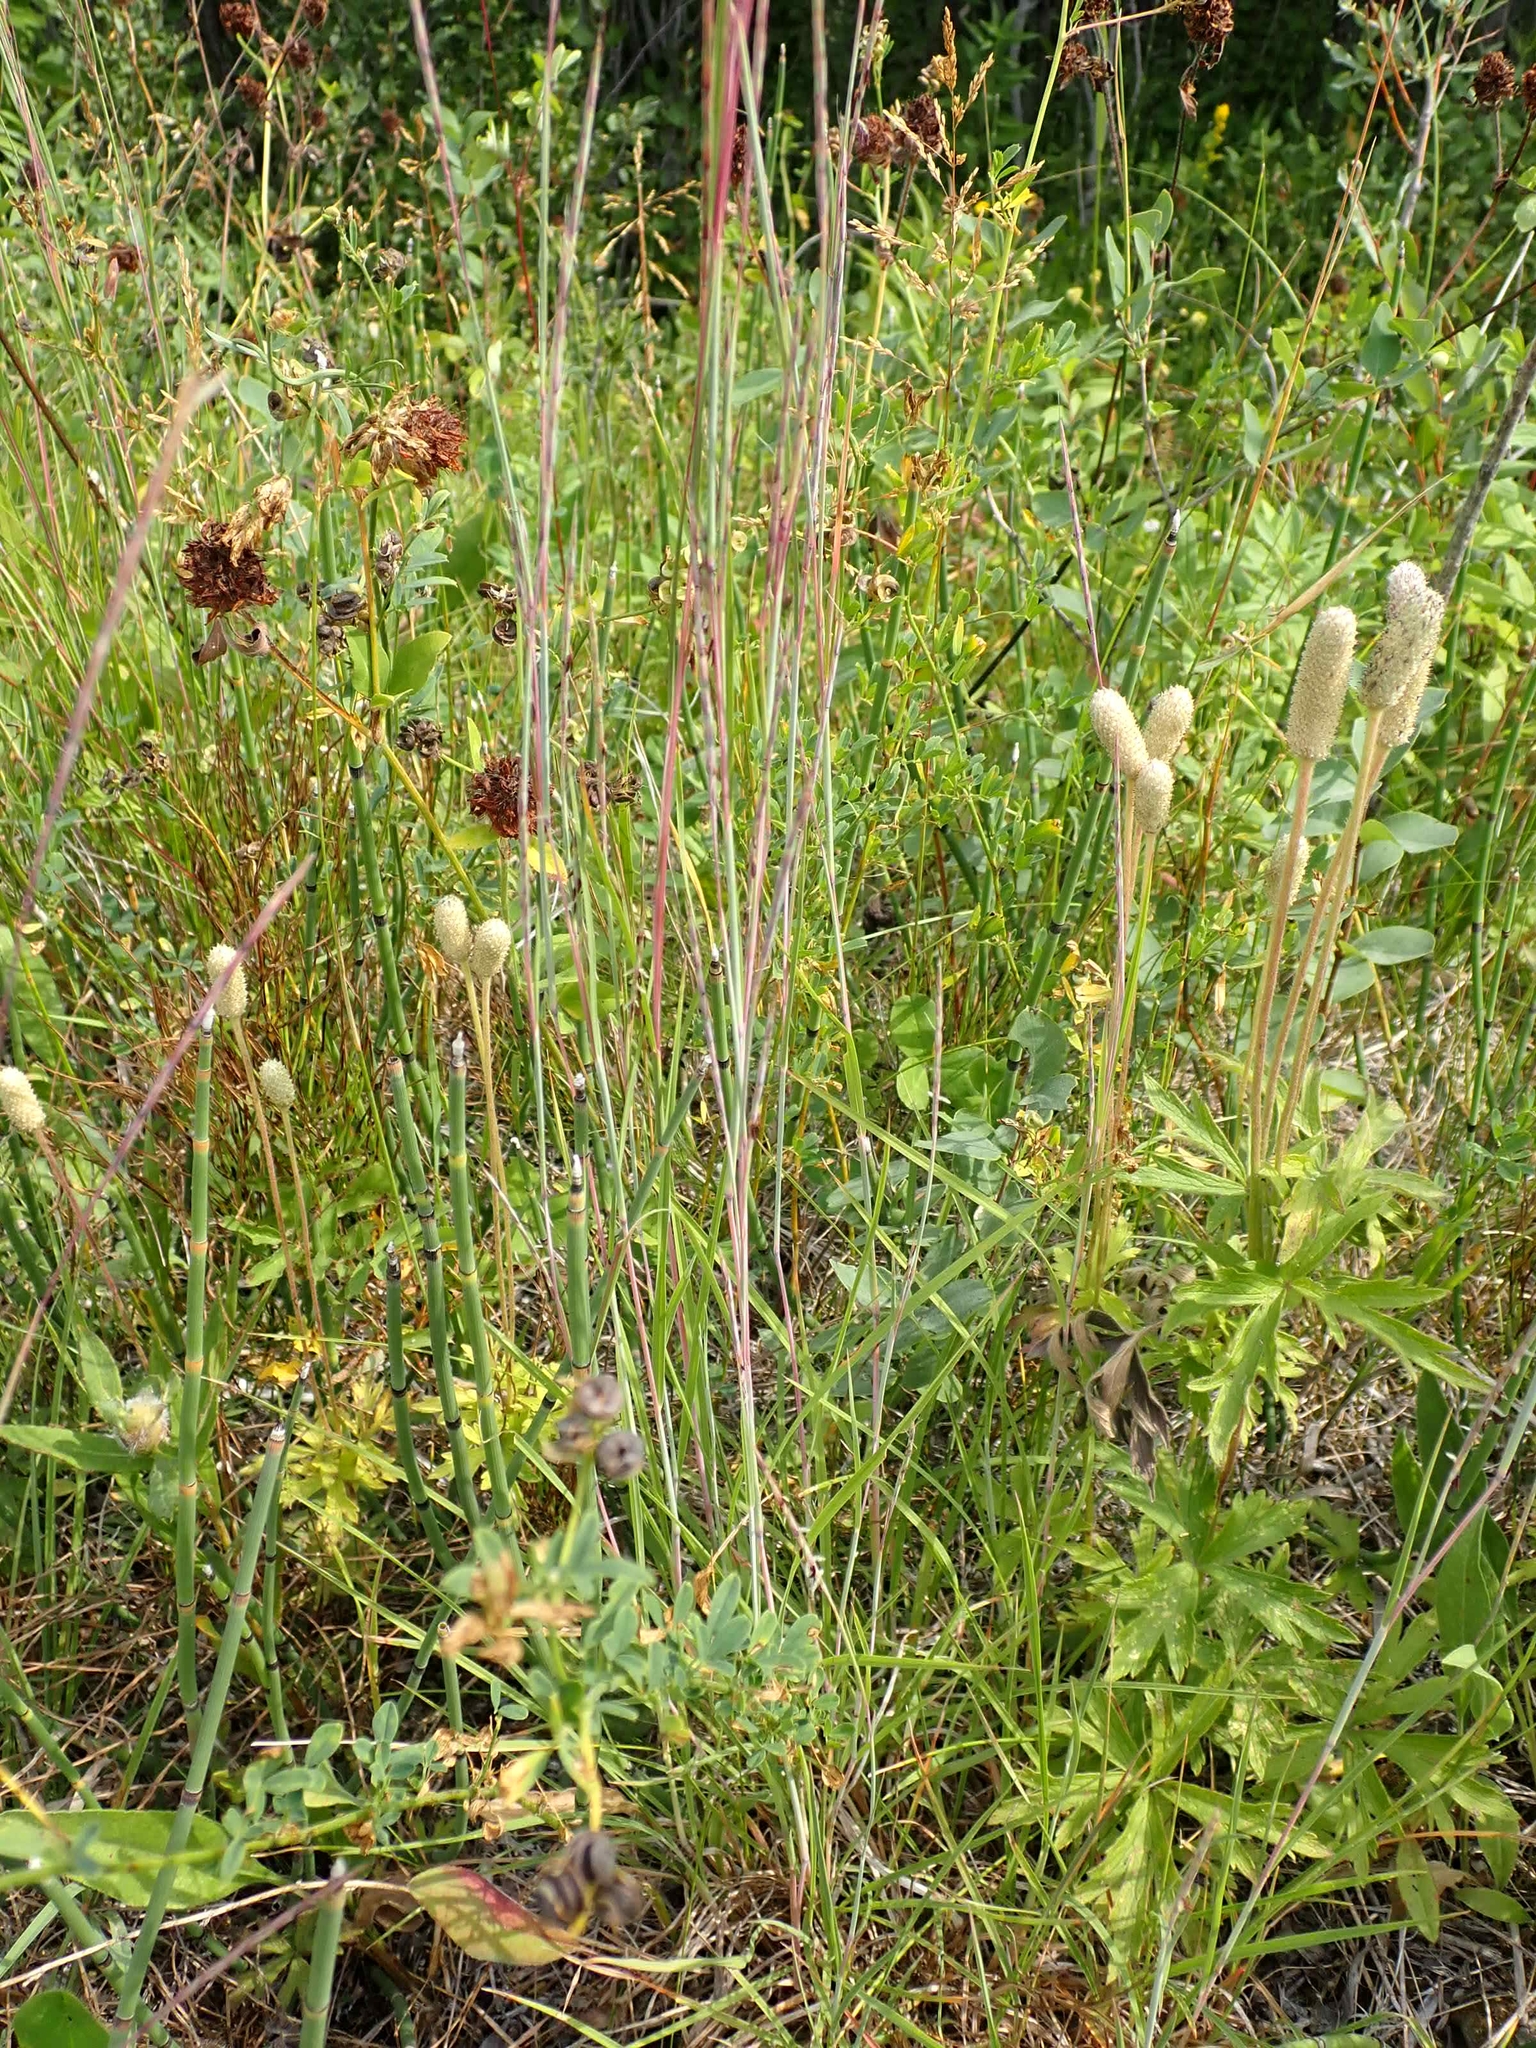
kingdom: Plantae
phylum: Tracheophyta
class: Magnoliopsida
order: Ranunculales
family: Ranunculaceae
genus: Anemone
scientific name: Anemone cylindrica
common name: Candle anemone
